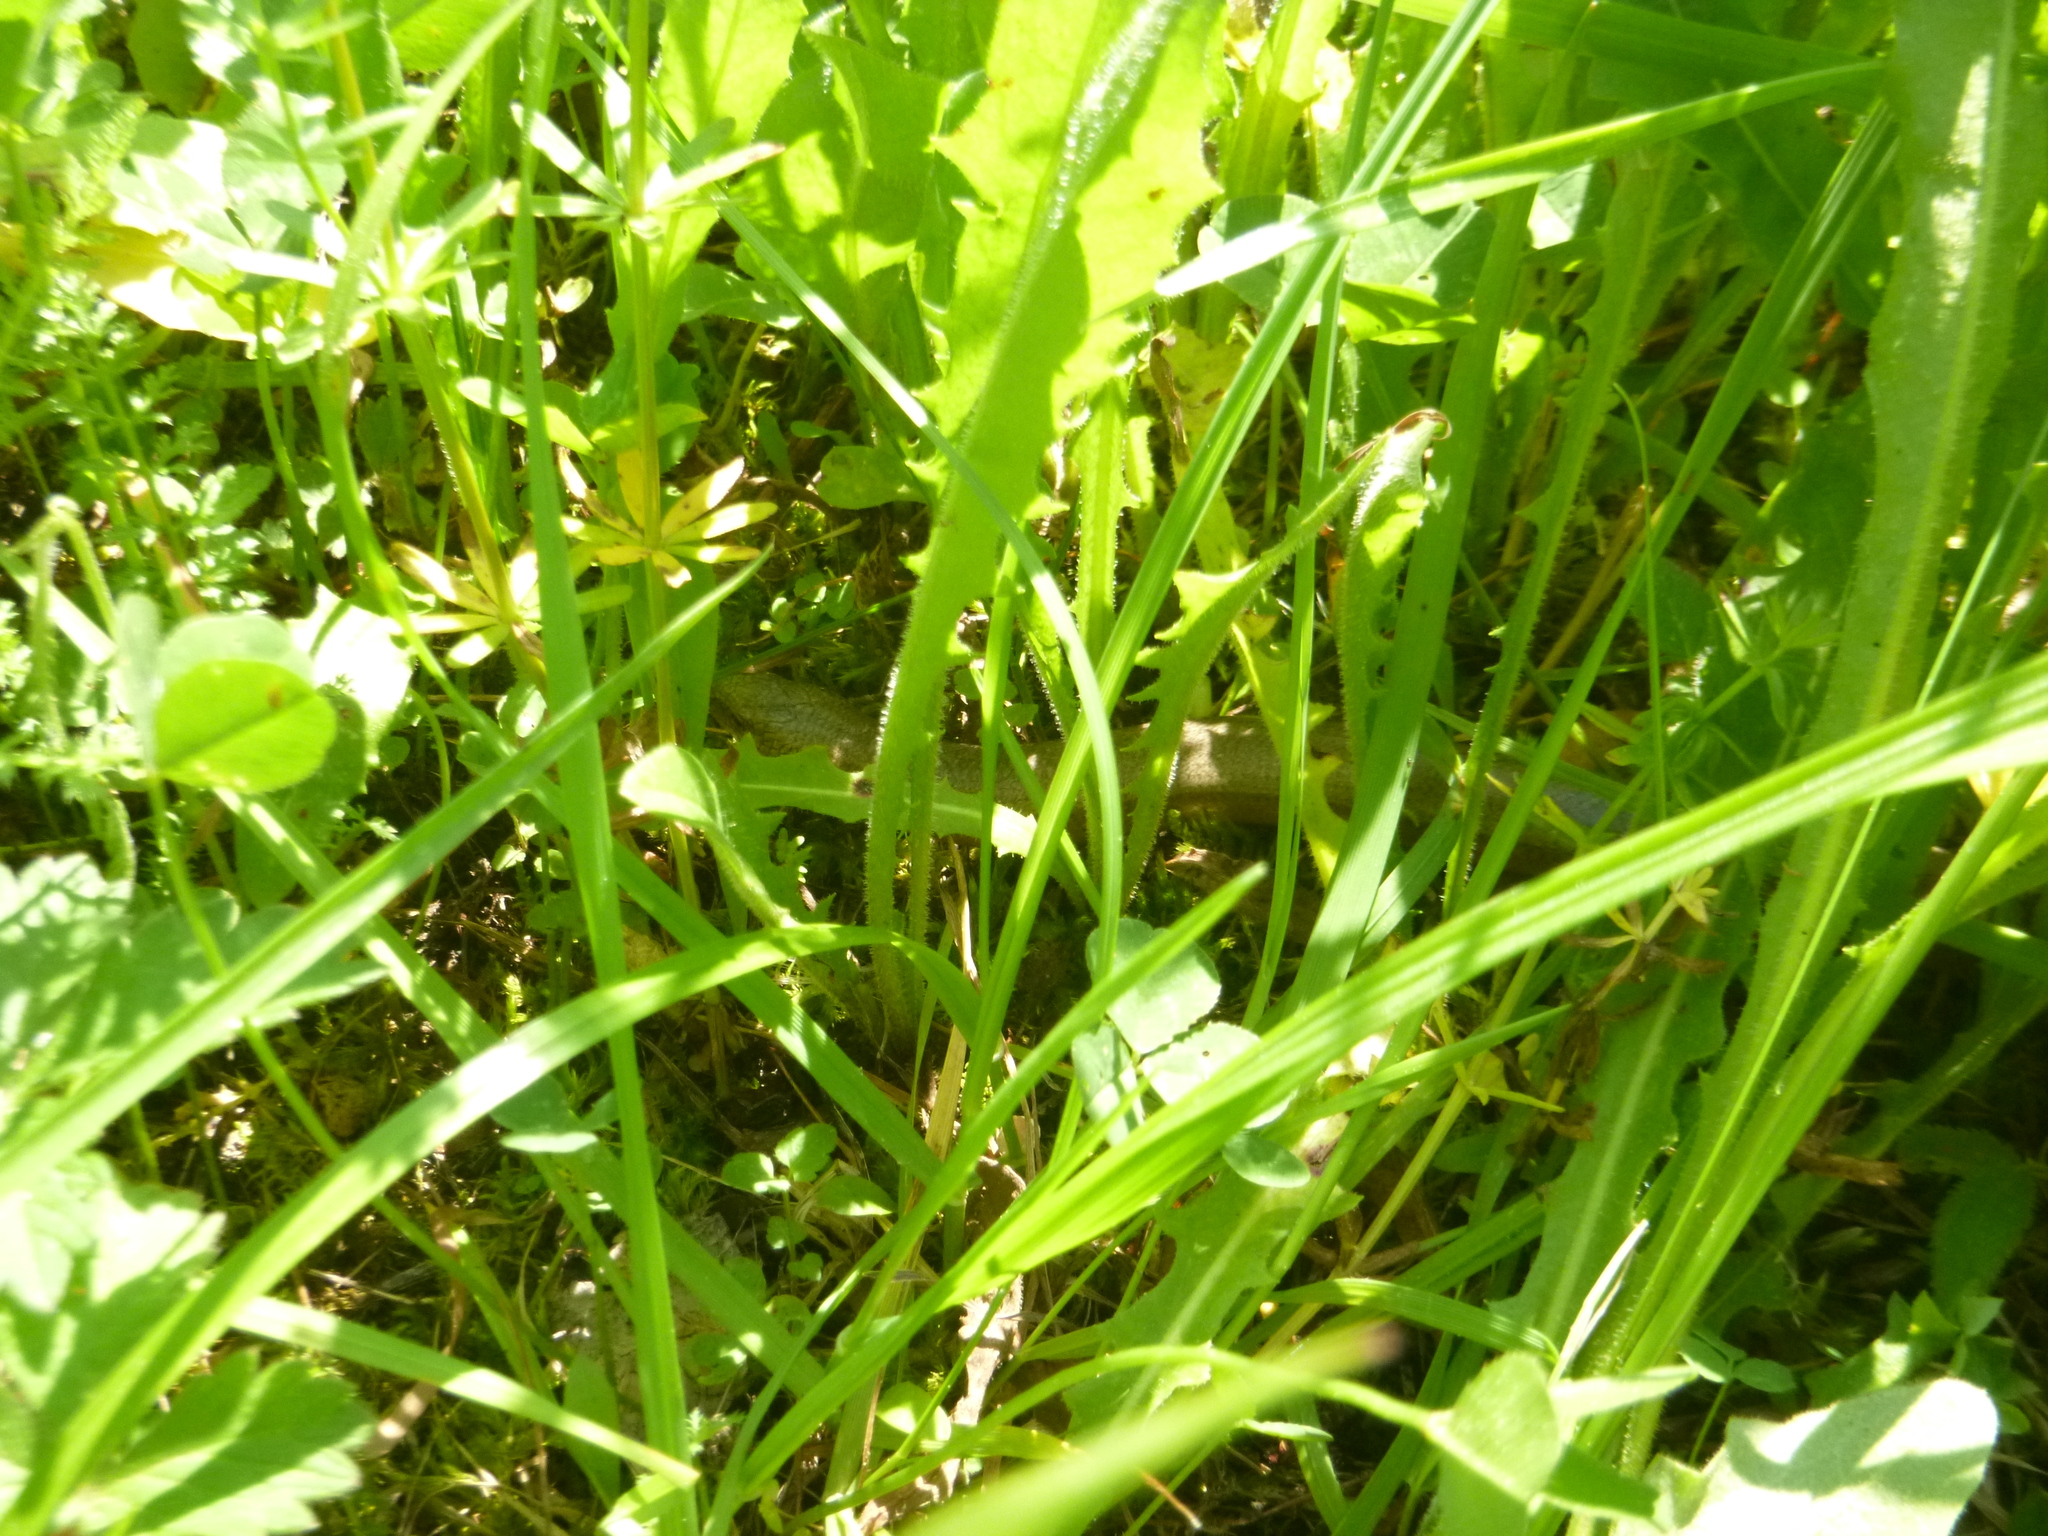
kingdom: Animalia
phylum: Chordata
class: Squamata
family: Anguidae
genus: Anguis
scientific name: Anguis fragilis
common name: Slow worm
